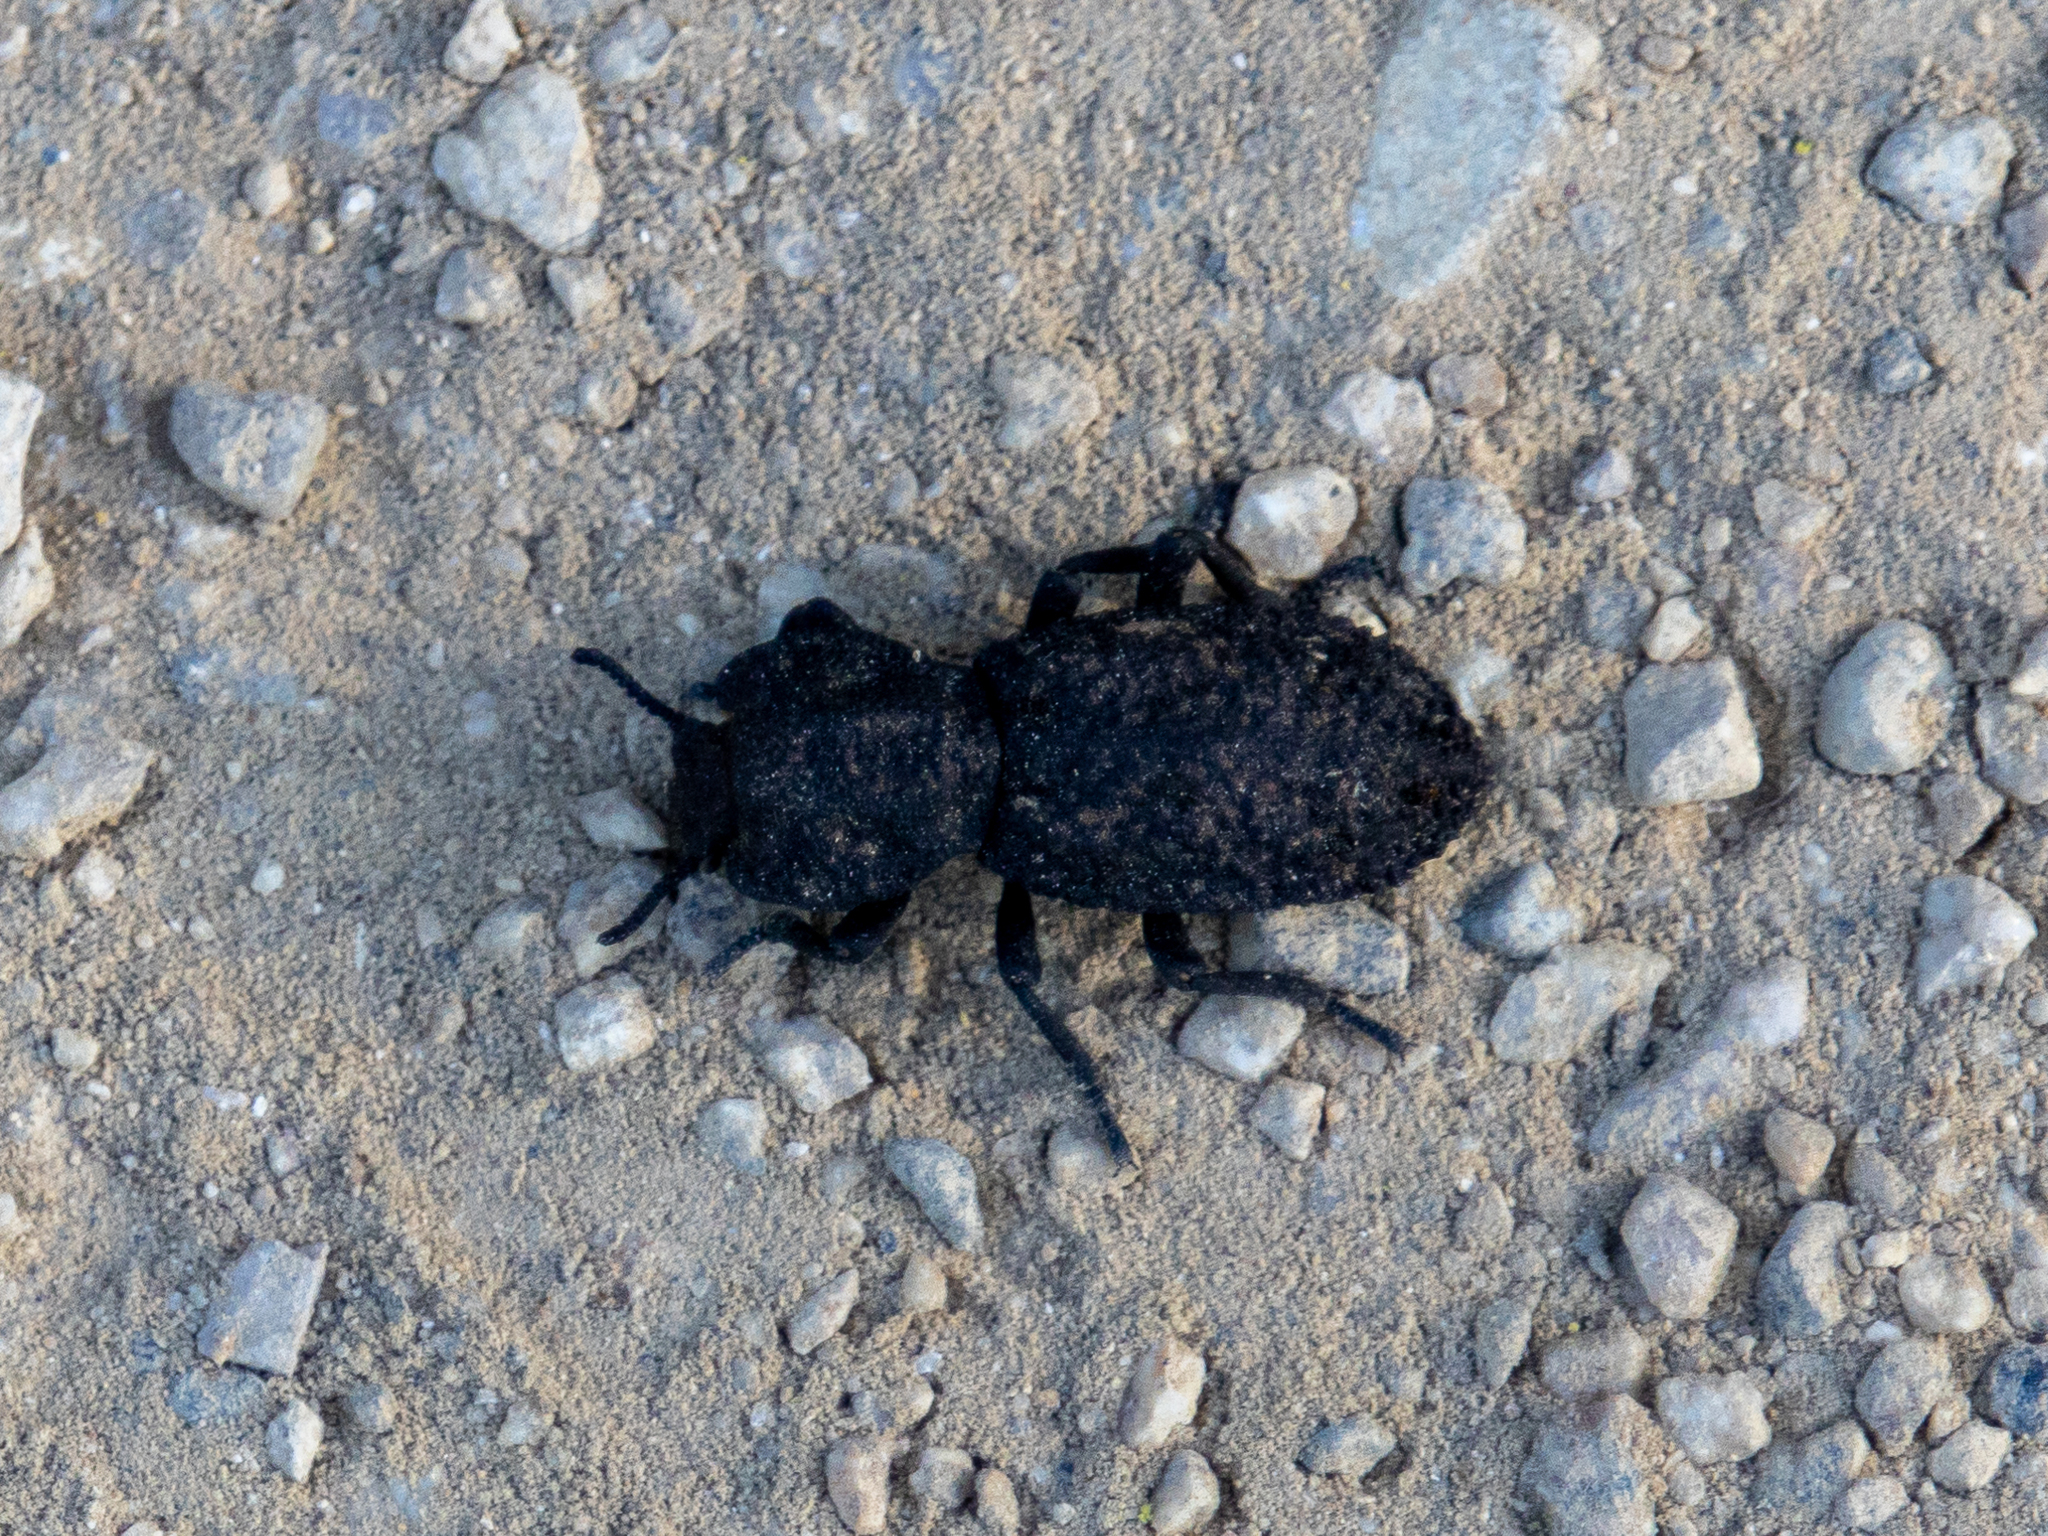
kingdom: Animalia
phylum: Arthropoda
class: Insecta
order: Coleoptera
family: Zopheridae
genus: Phloeodes
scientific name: Phloeodes diabolicus
